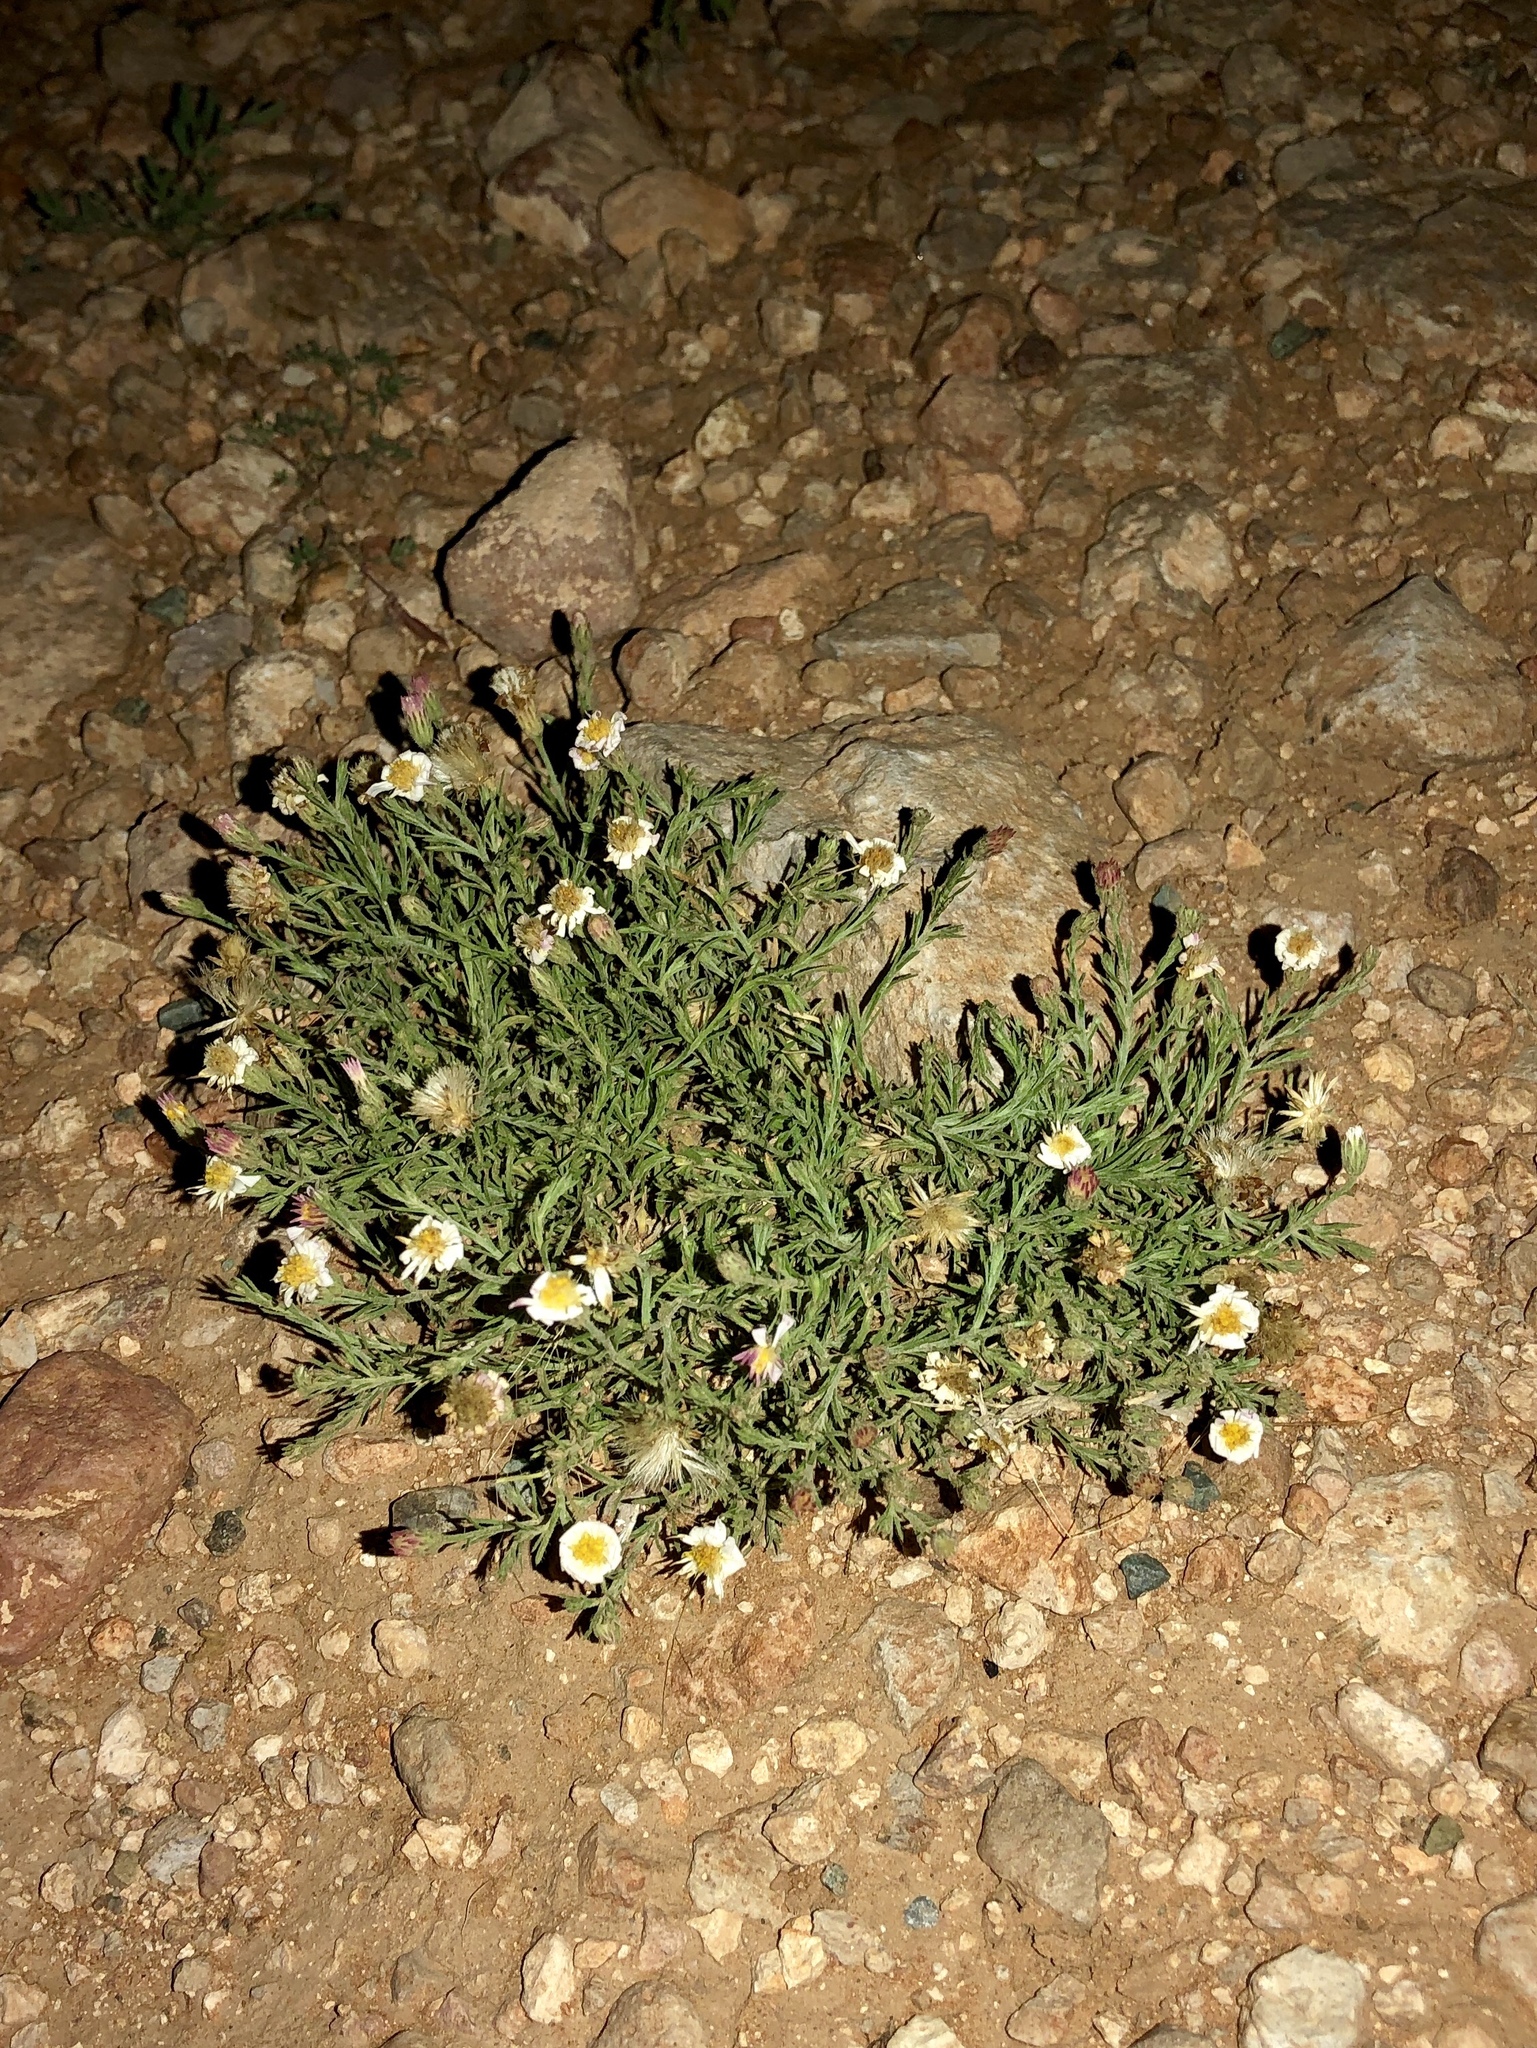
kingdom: Plantae
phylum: Tracheophyta
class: Magnoliopsida
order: Asterales
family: Asteraceae
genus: Chaetopappa
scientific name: Chaetopappa ericoides
